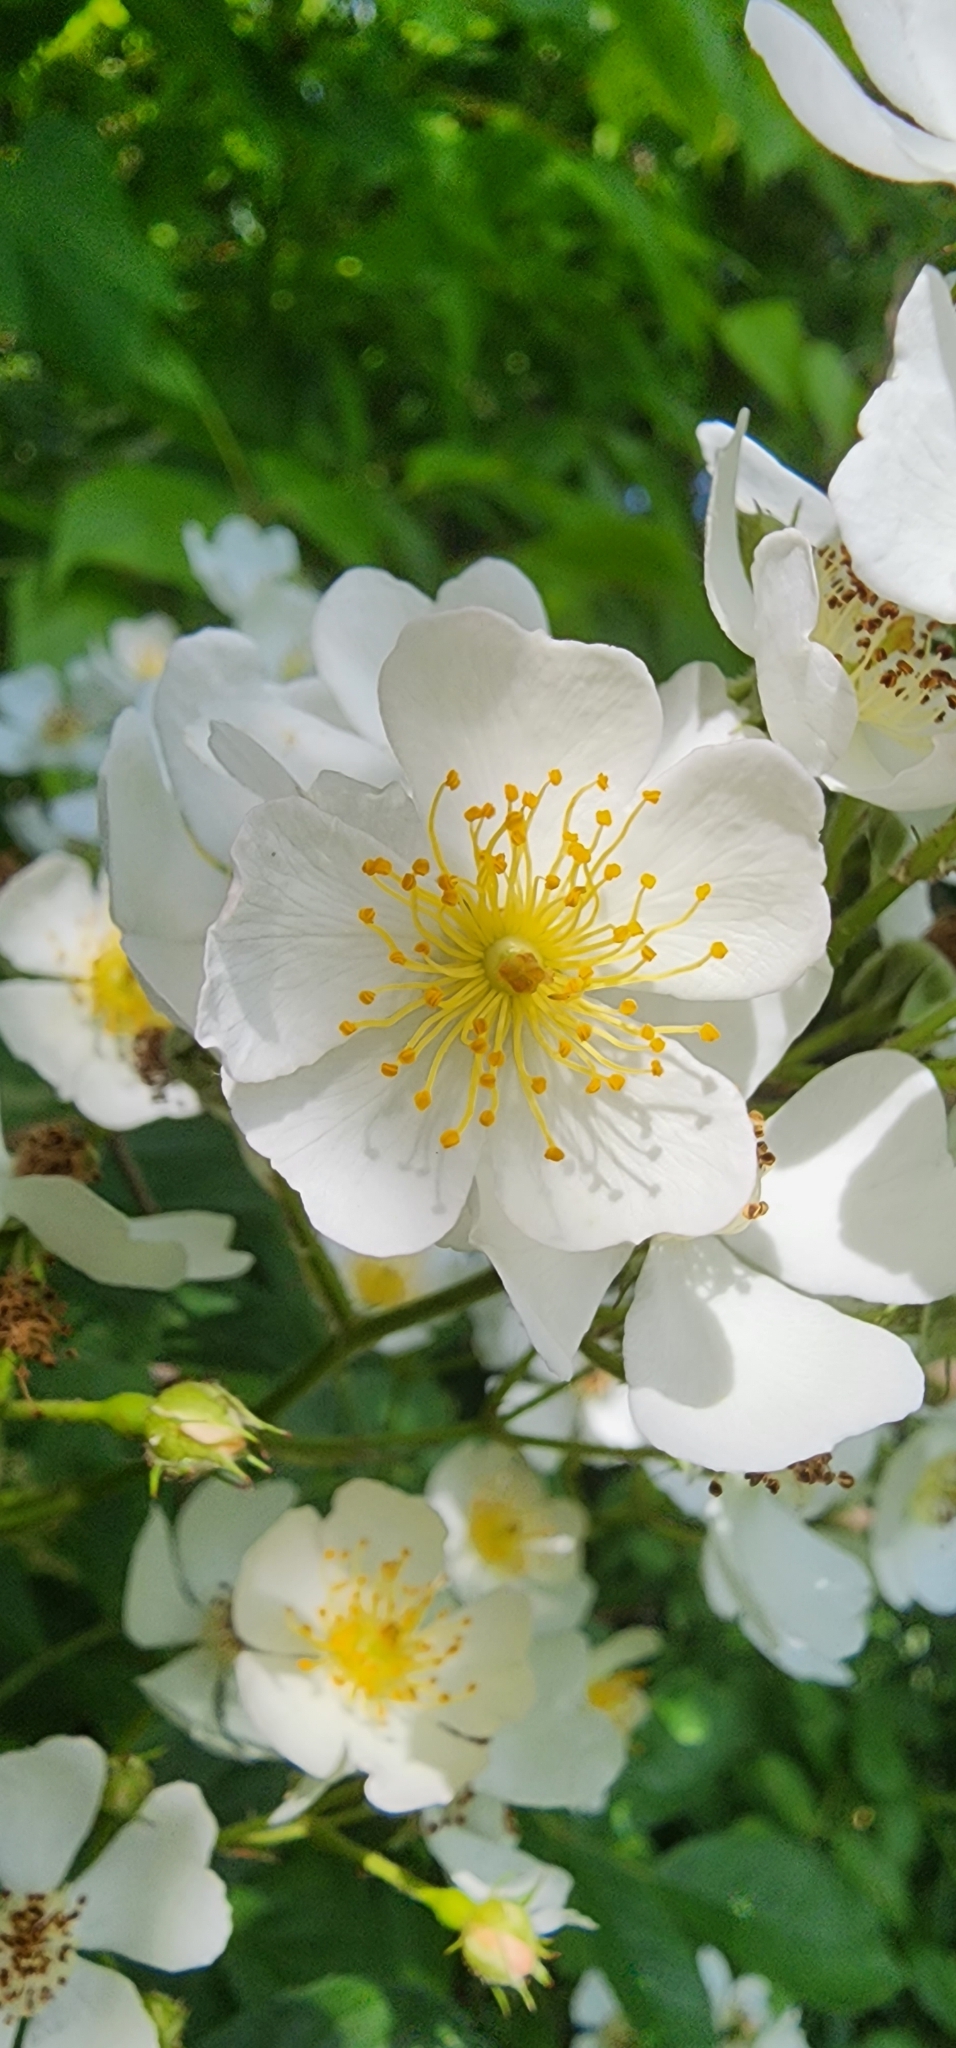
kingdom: Plantae
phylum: Tracheophyta
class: Magnoliopsida
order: Rosales
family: Rosaceae
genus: Rosa
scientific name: Rosa multiflora
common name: Multiflora rose
